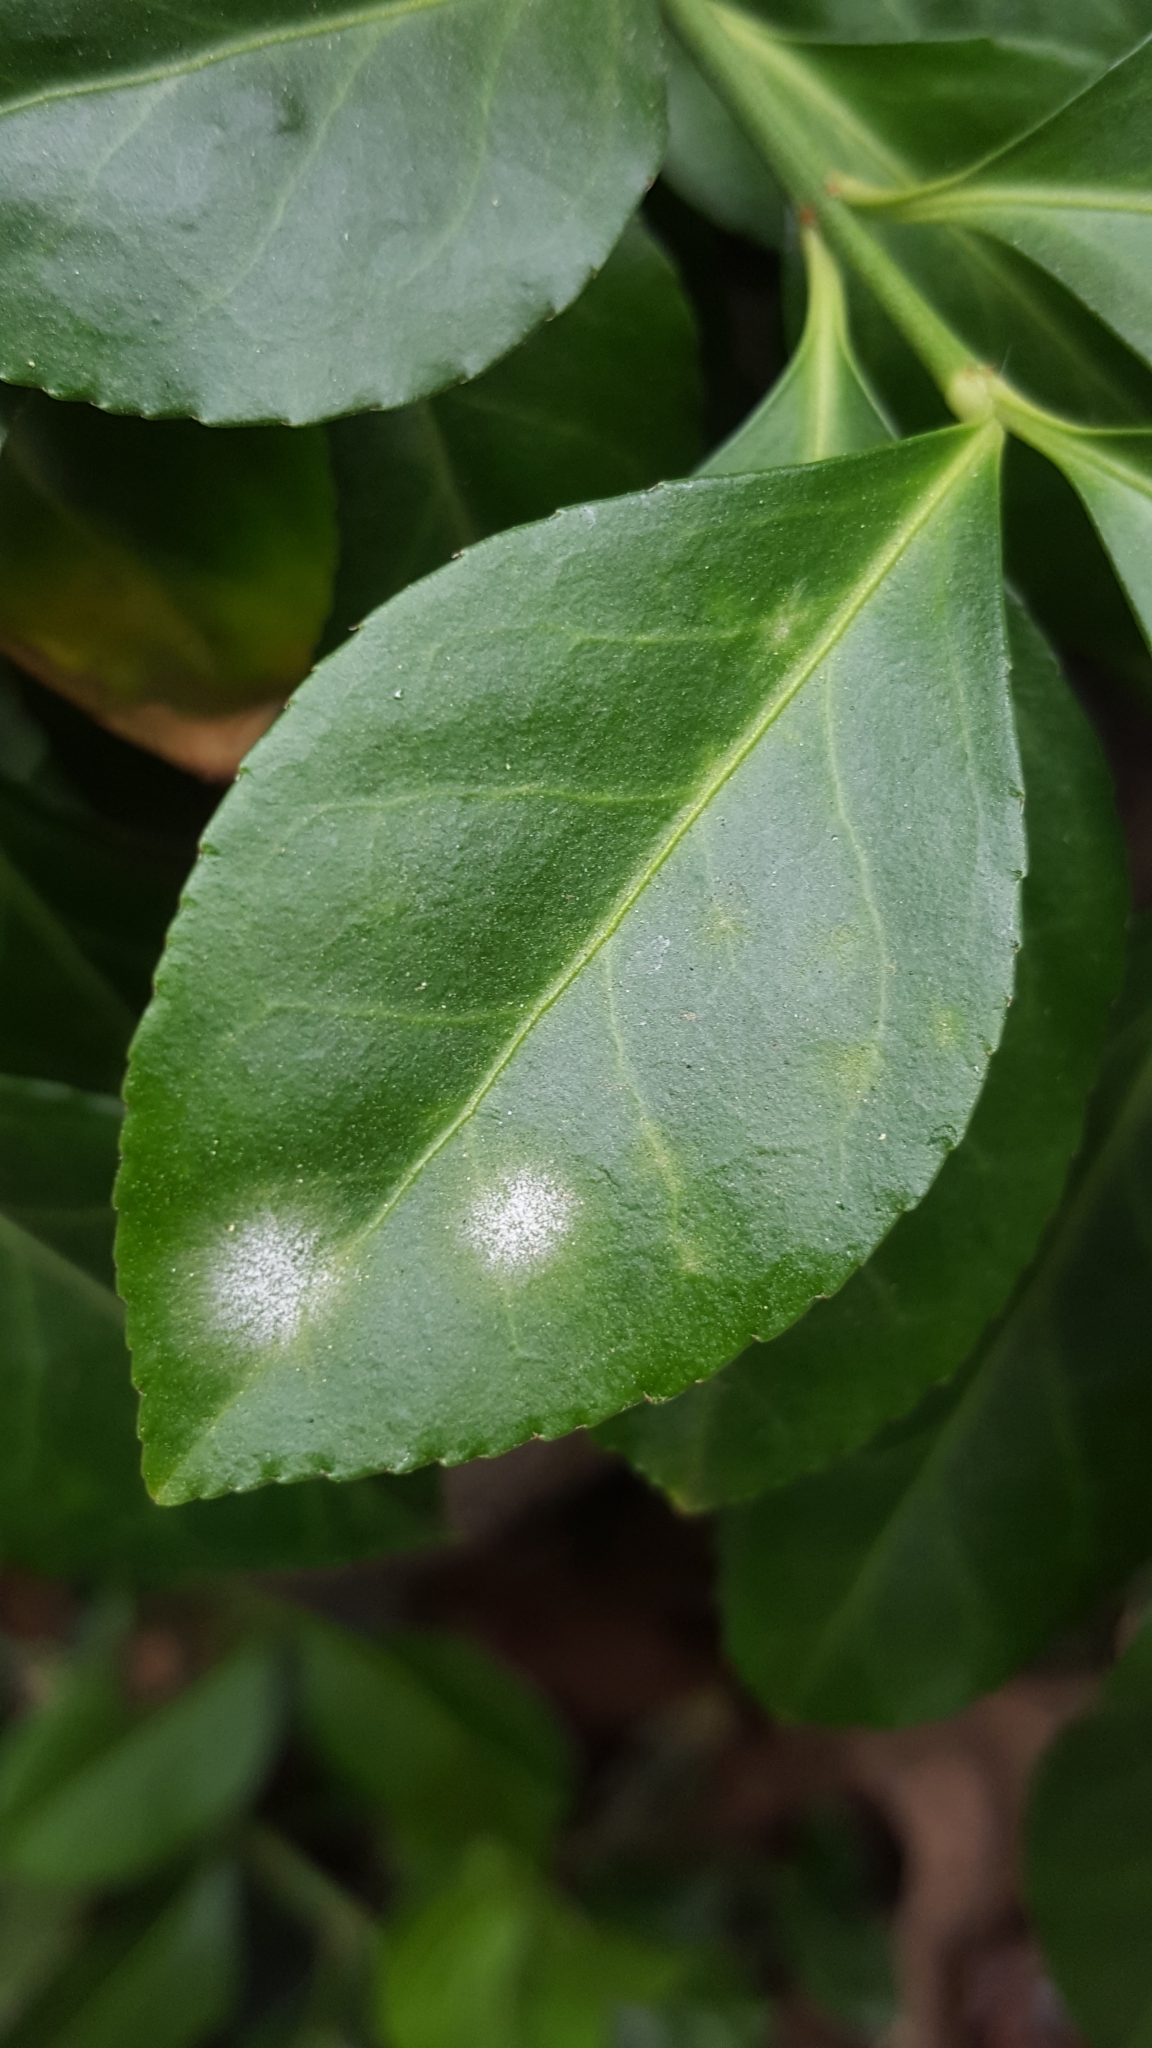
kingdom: Fungi
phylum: Ascomycota
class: Leotiomycetes
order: Helotiales
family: Erysiphaceae
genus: Erysiphe
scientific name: Erysiphe euonymicola
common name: Spindletree mildew
